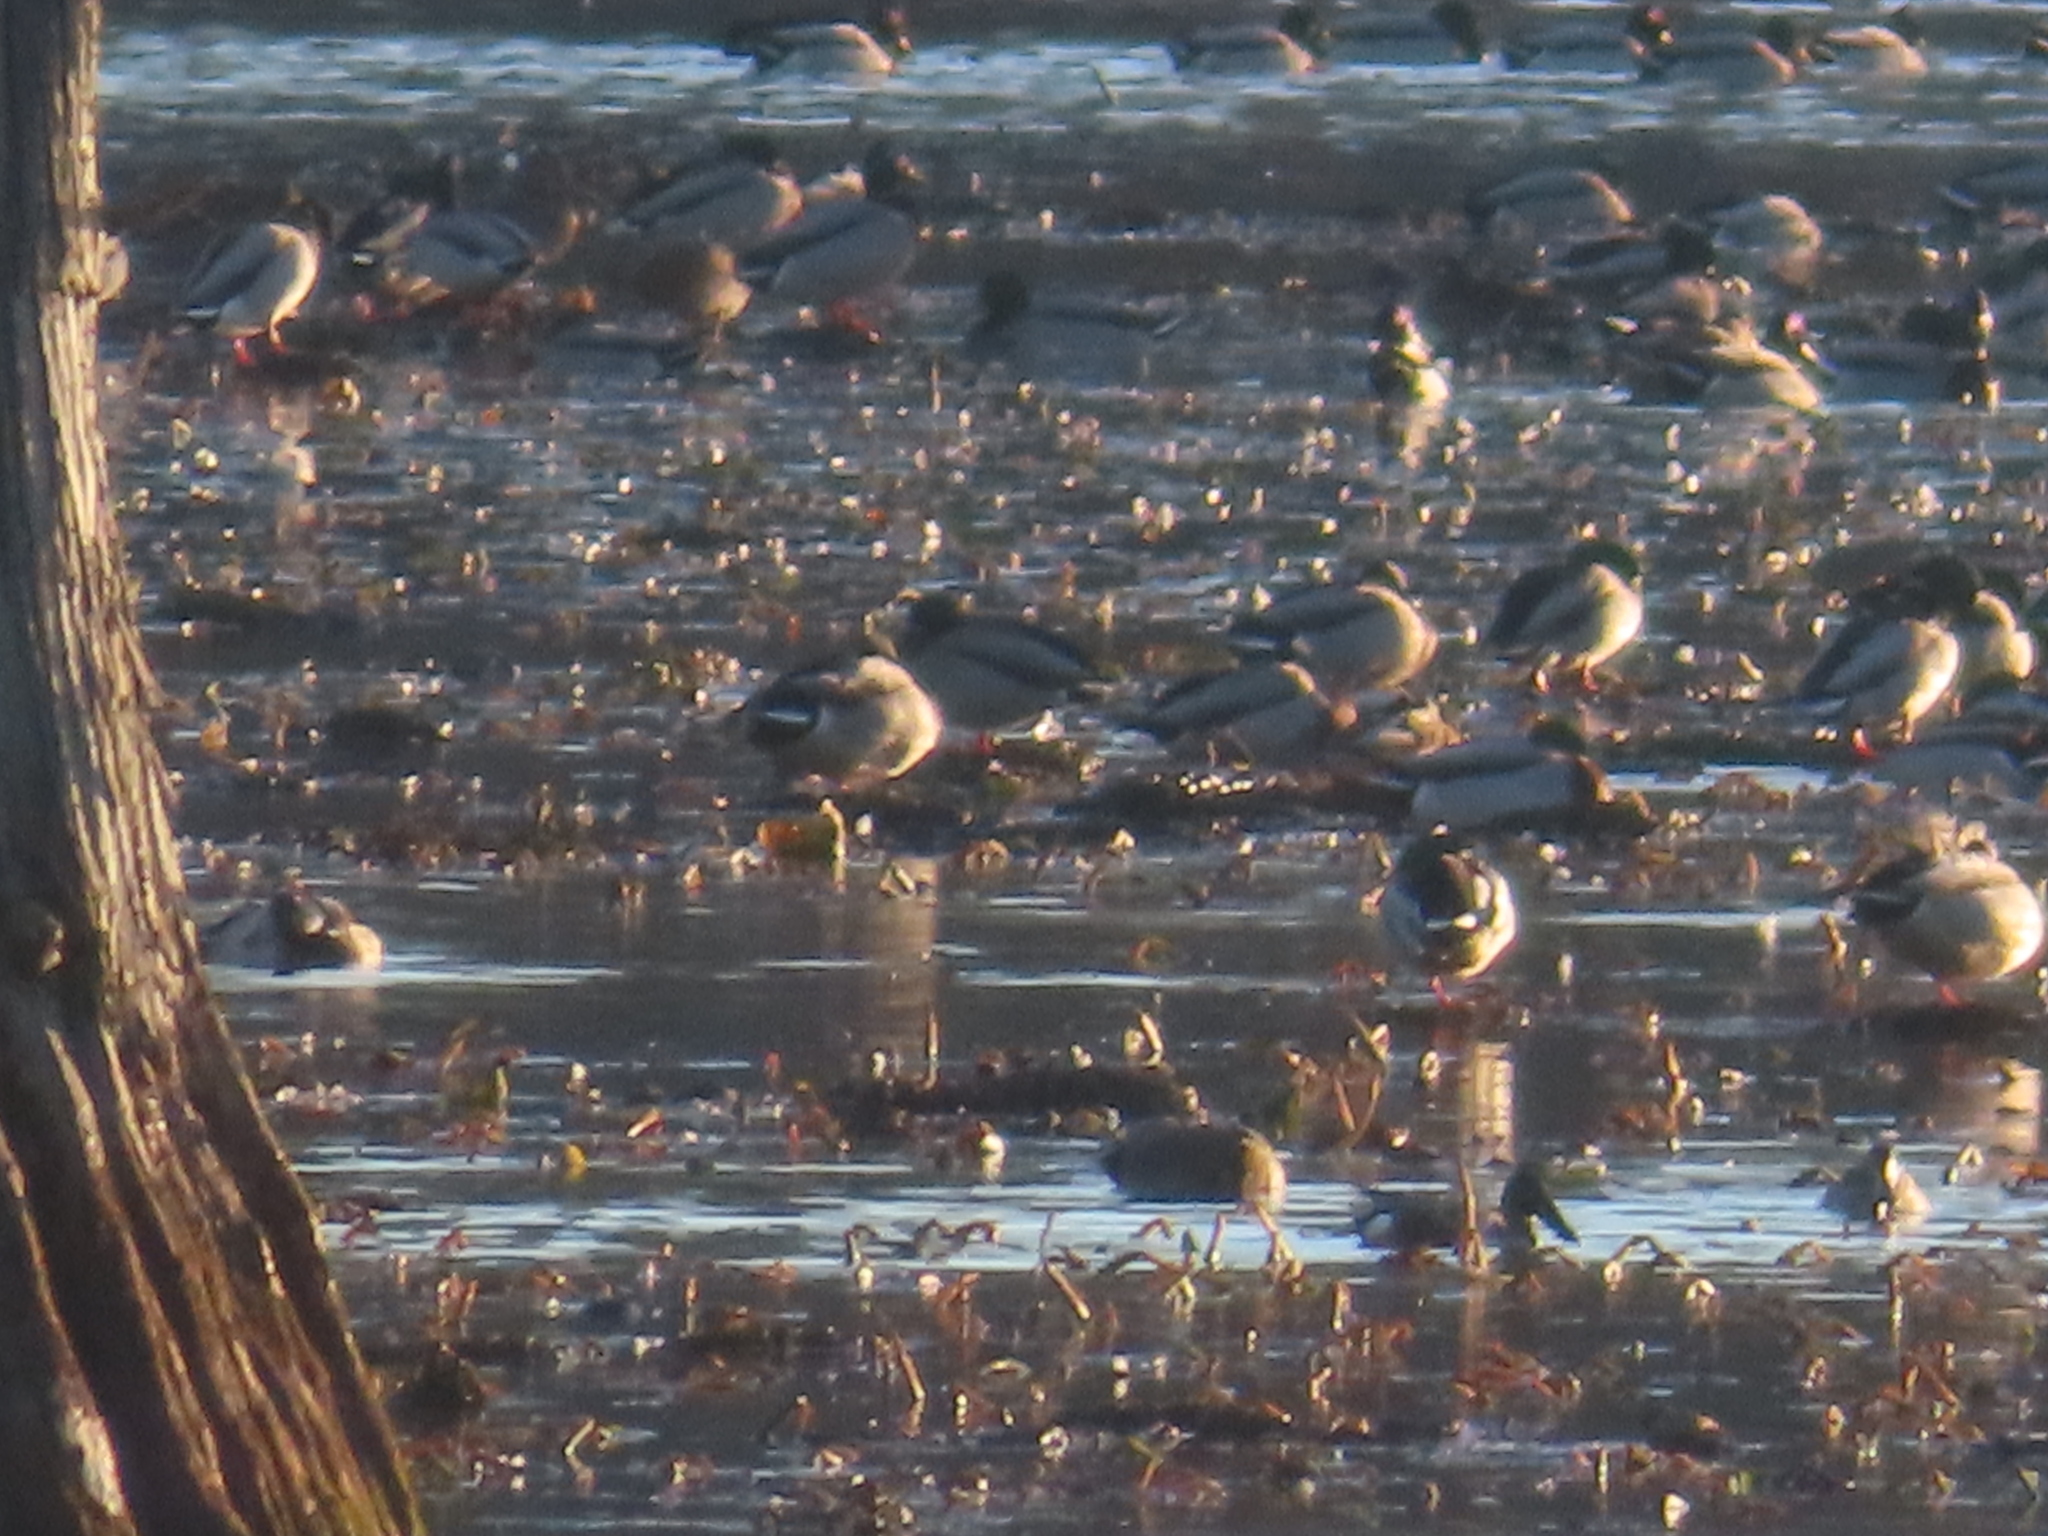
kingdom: Animalia
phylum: Chordata
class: Aves
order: Anseriformes
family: Anatidae
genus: Spatula
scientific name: Spatula clypeata
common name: Northern shoveler
